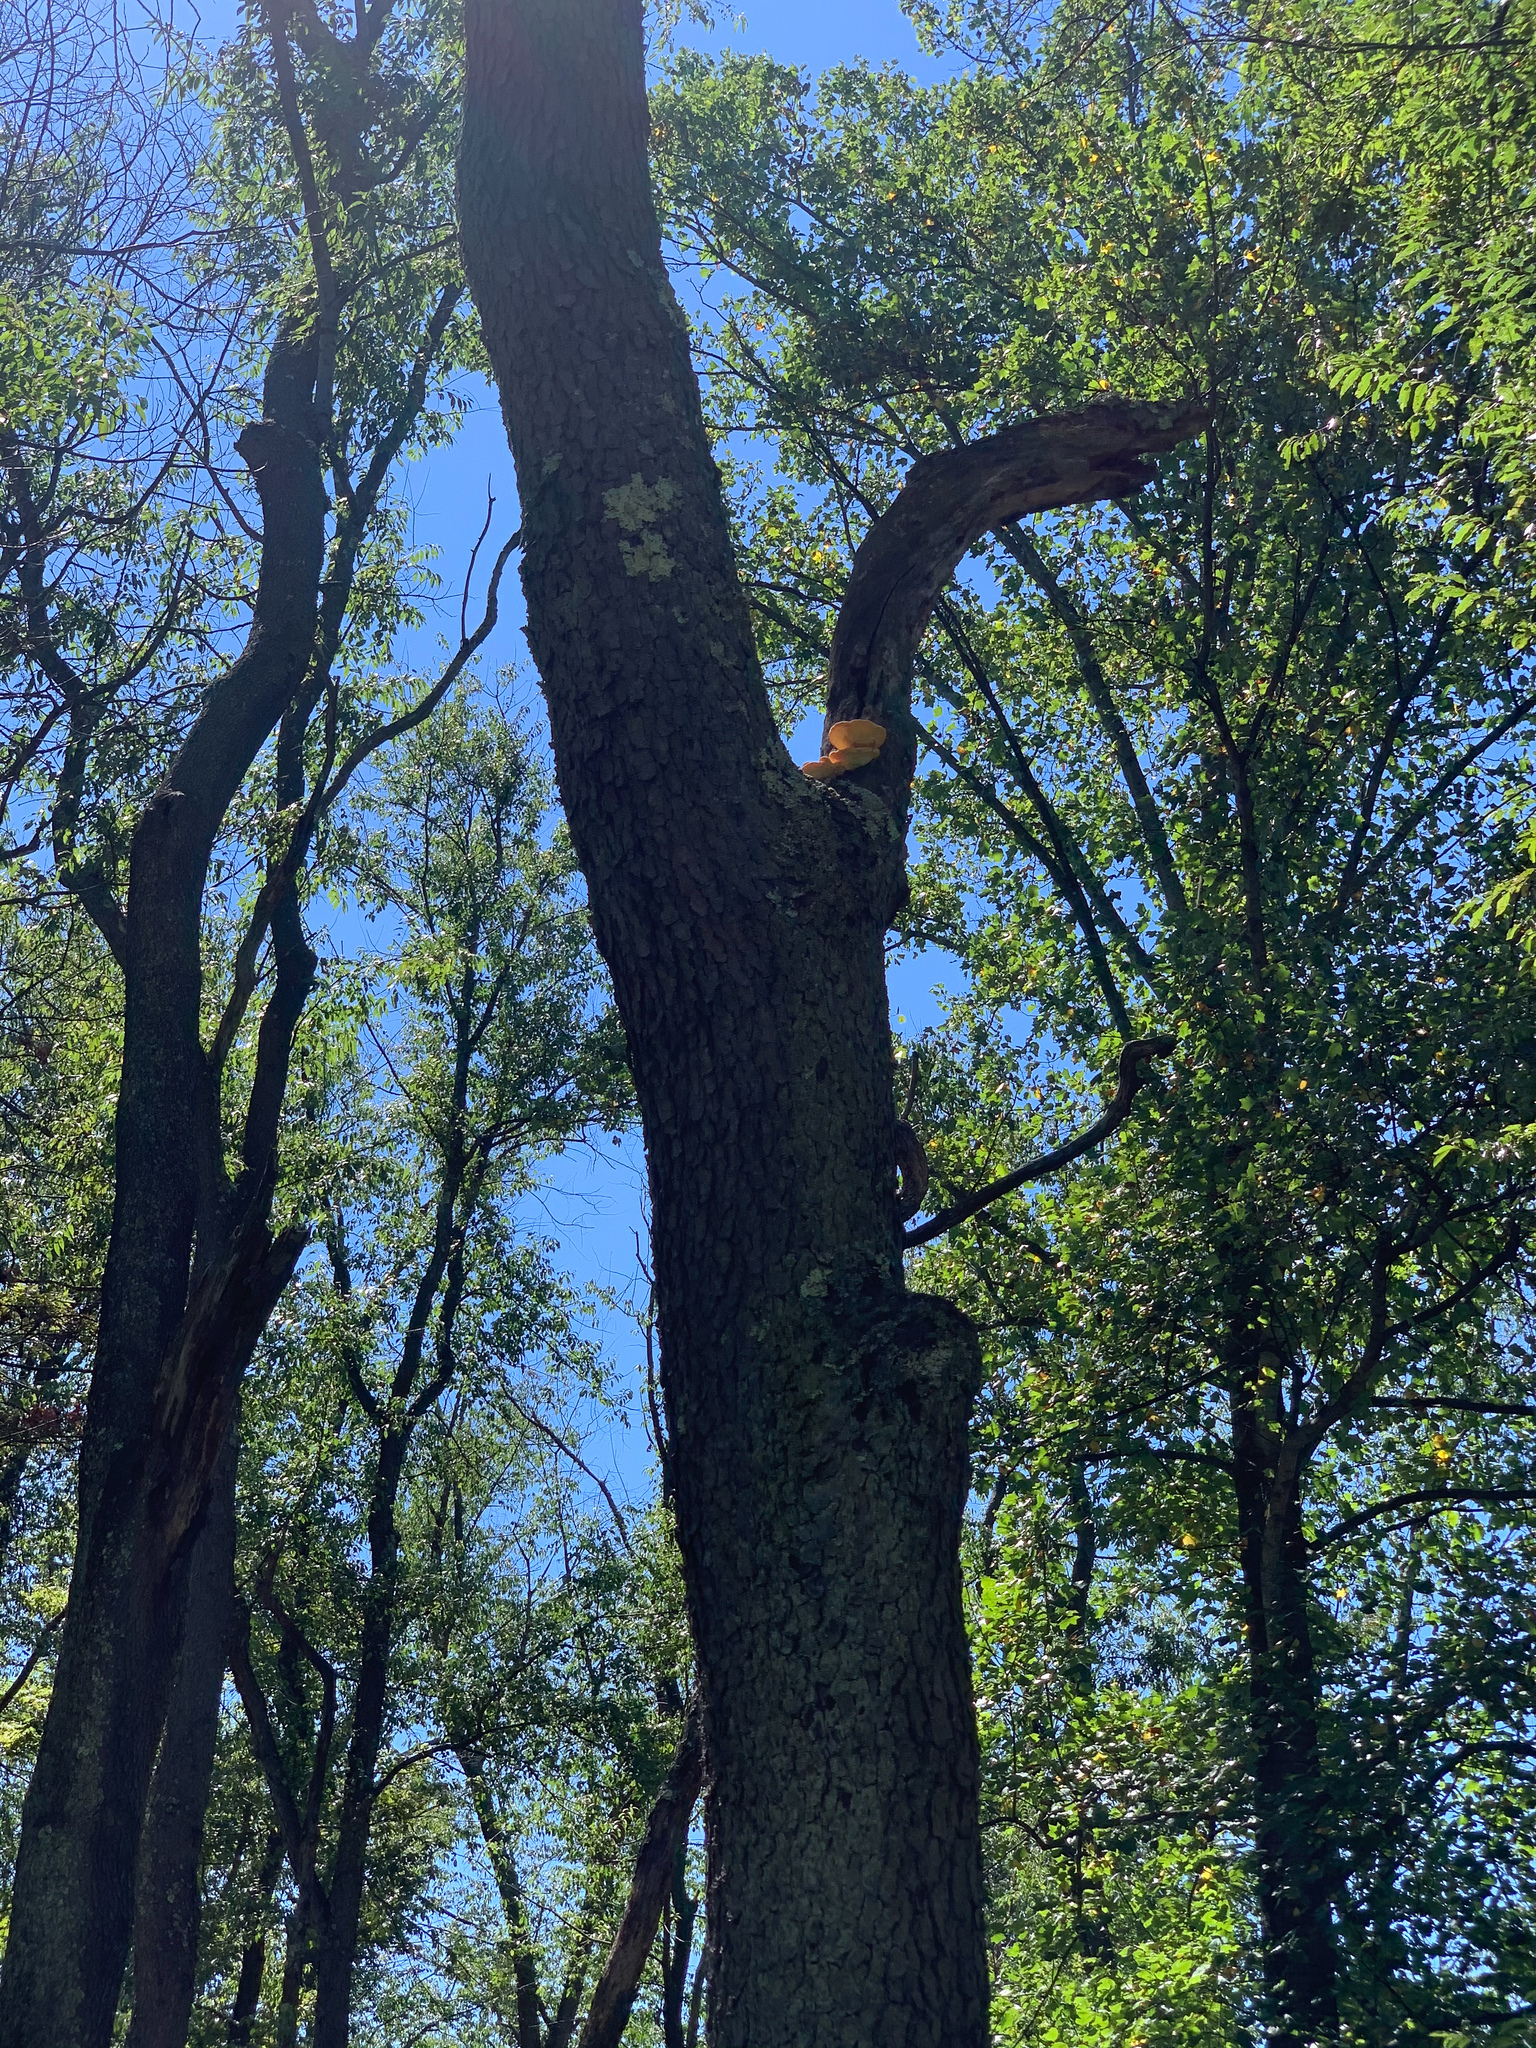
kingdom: Fungi
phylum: Basidiomycota
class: Agaricomycetes
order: Polyporales
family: Laetiporaceae
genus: Laetiporus
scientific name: Laetiporus sulphureus
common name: Chicken of the woods
